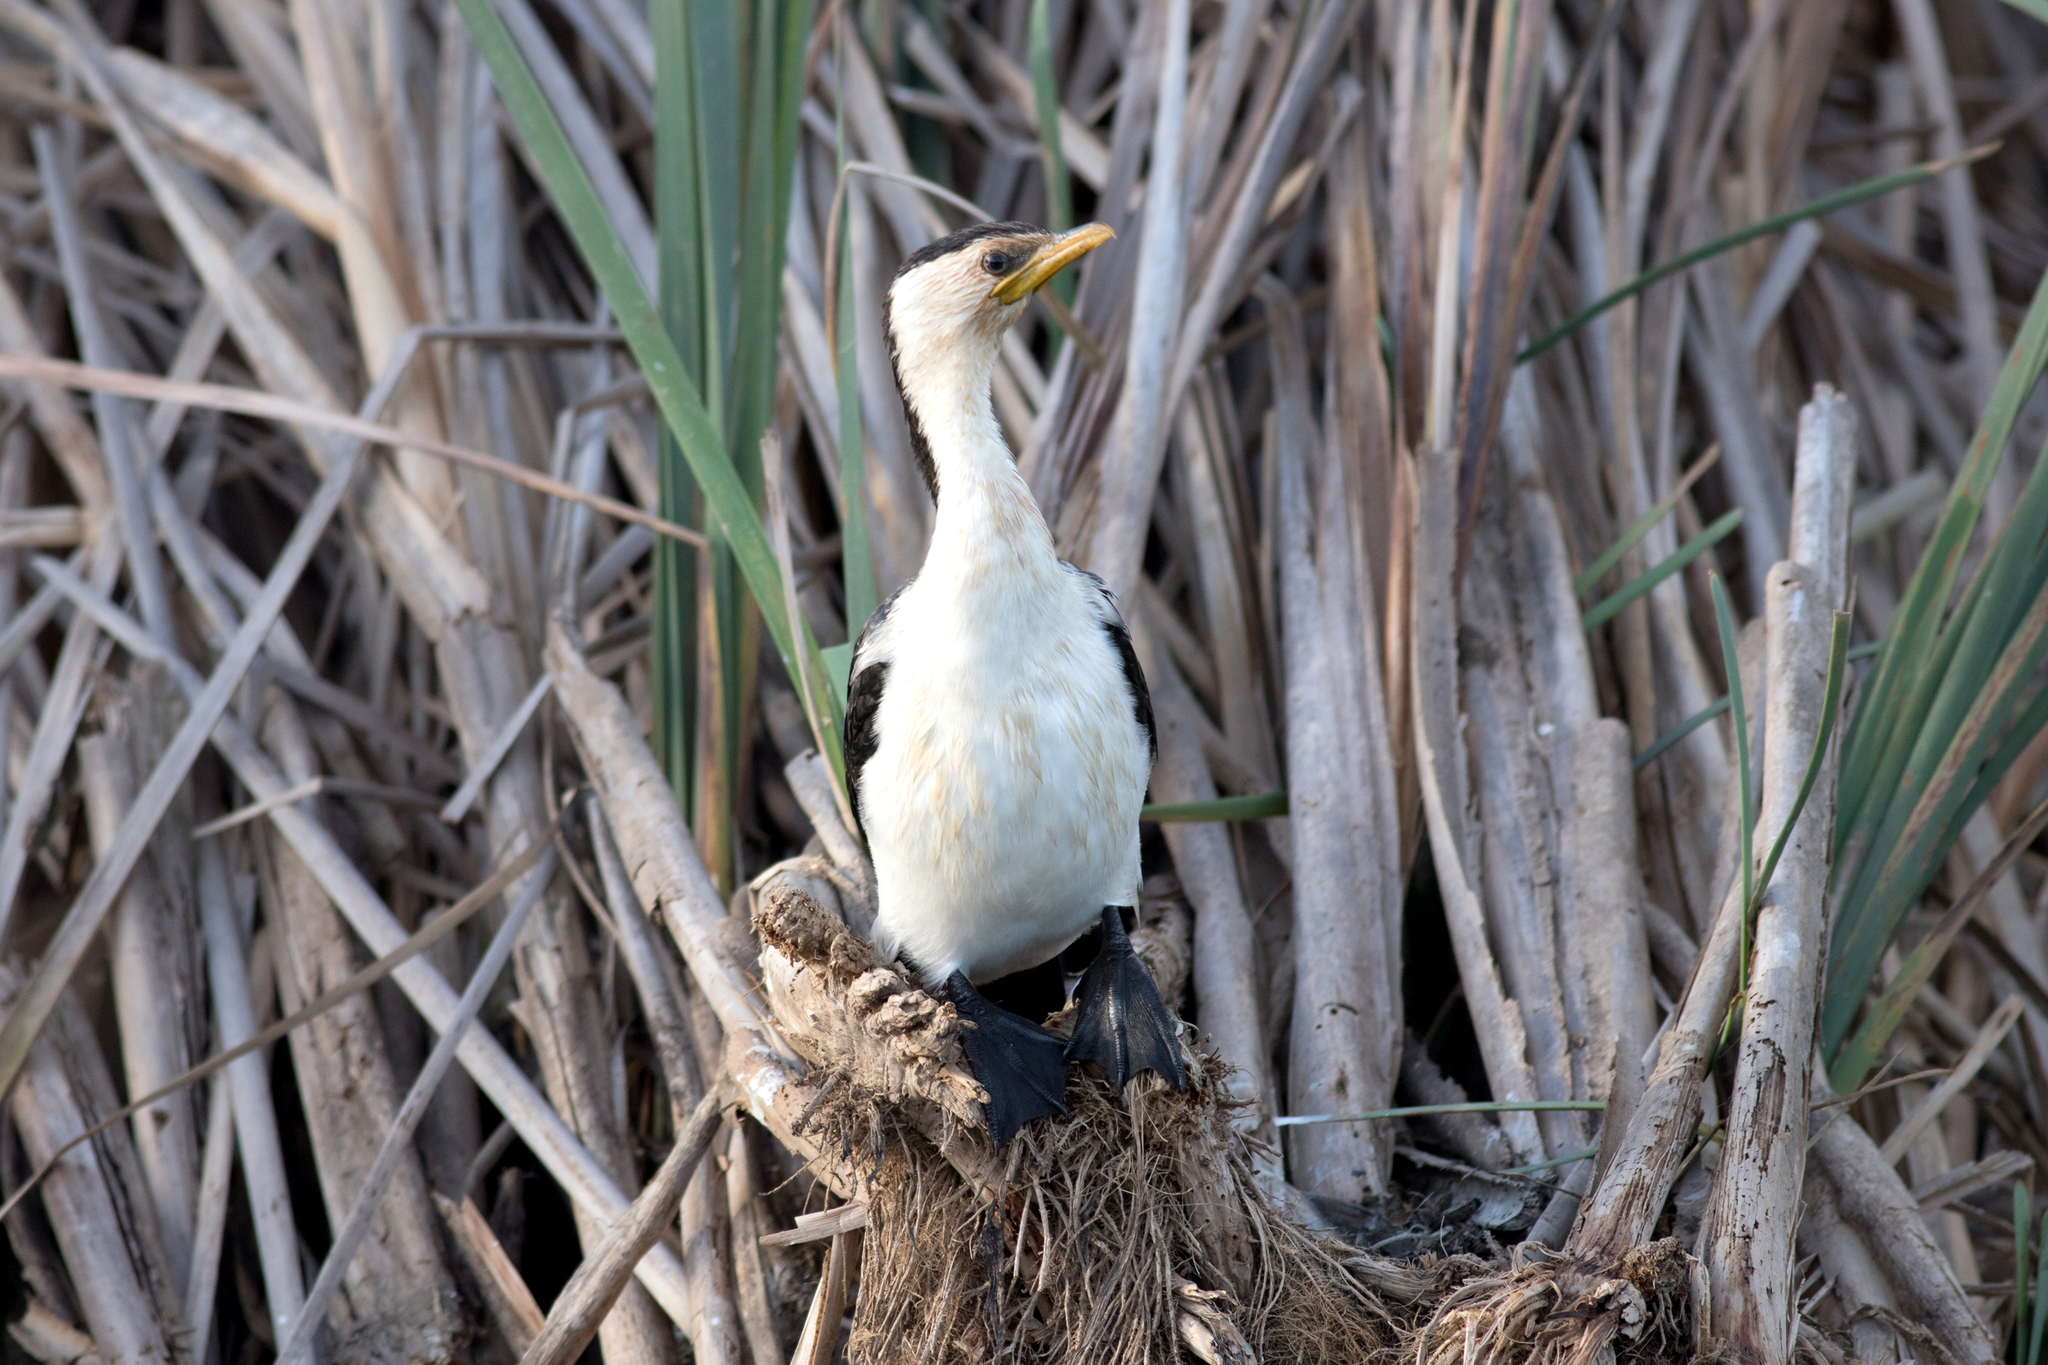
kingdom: Animalia
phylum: Chordata
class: Aves
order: Suliformes
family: Phalacrocoracidae
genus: Microcarbo
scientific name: Microcarbo melanoleucos
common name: Little pied cormorant
